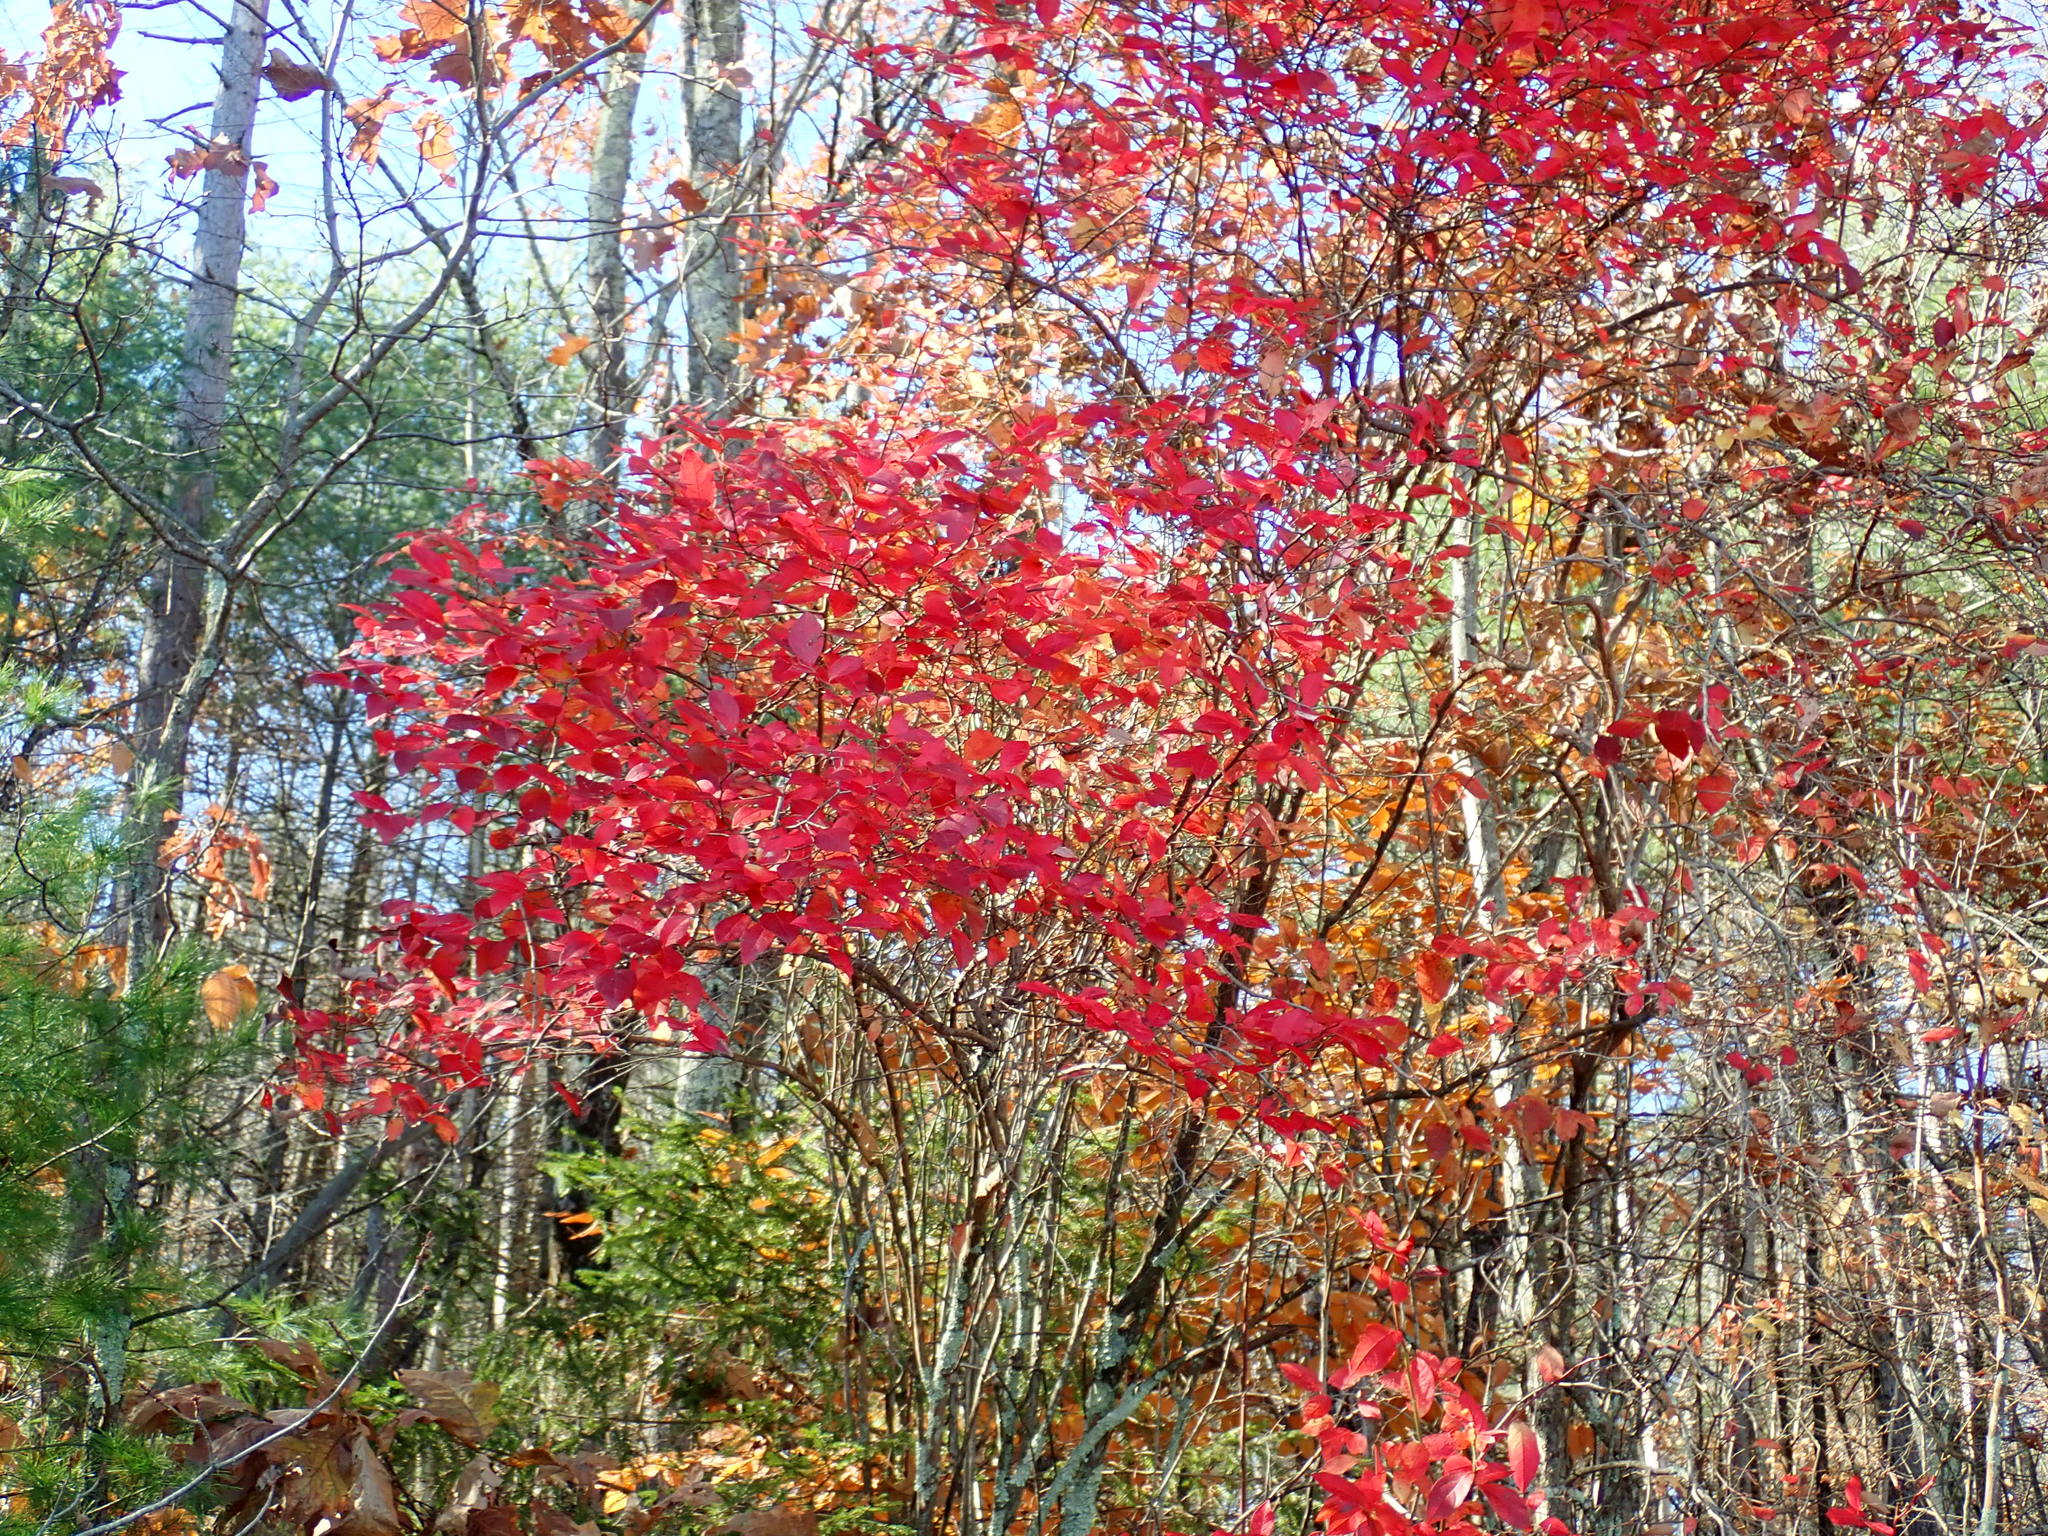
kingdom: Plantae
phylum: Tracheophyta
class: Magnoliopsida
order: Ericales
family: Ericaceae
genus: Vaccinium
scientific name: Vaccinium corymbosum
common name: Blueberry
